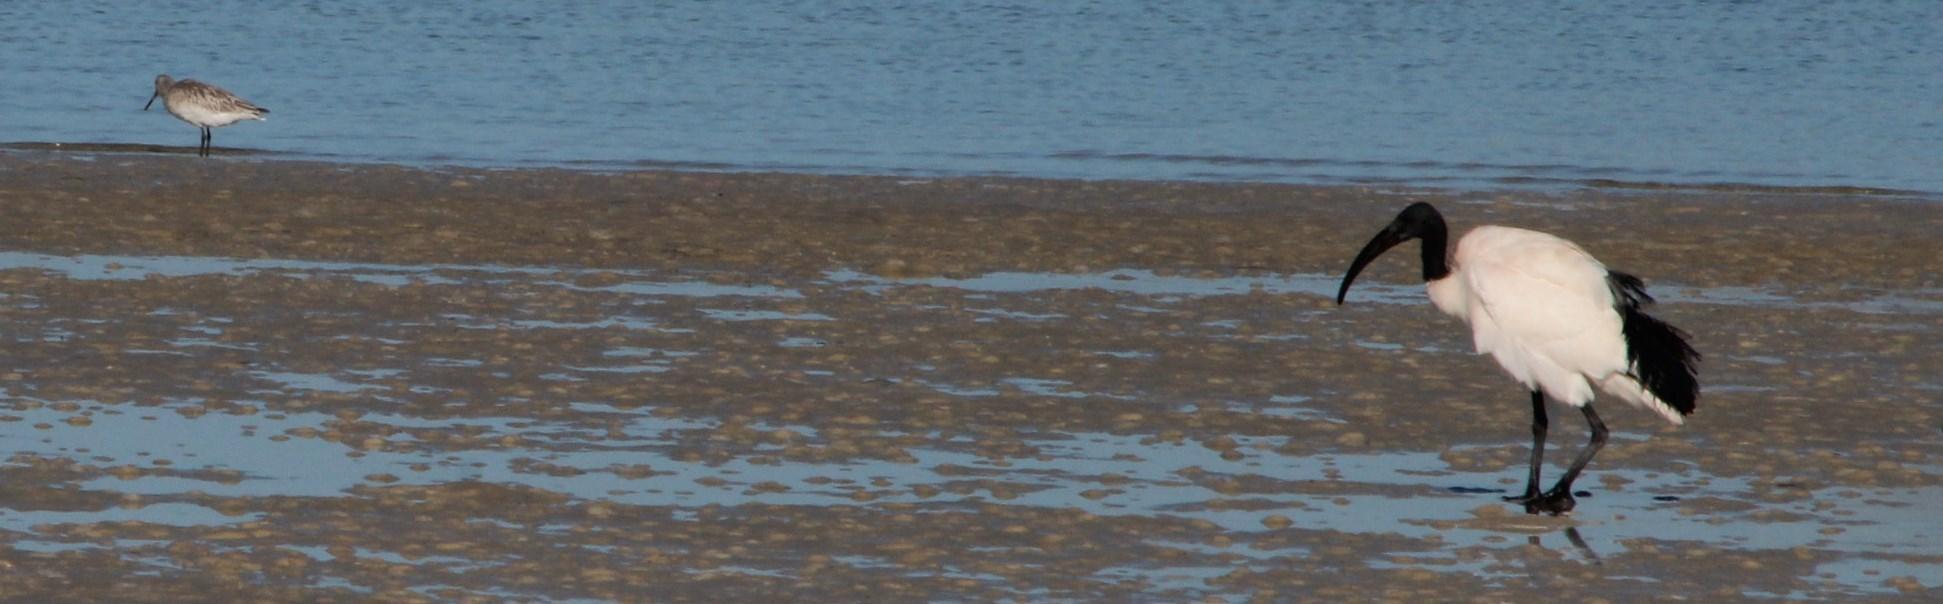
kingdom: Animalia
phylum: Chordata
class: Aves
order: Pelecaniformes
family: Threskiornithidae
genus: Threskiornis
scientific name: Threskiornis aethiopicus
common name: Sacred ibis
